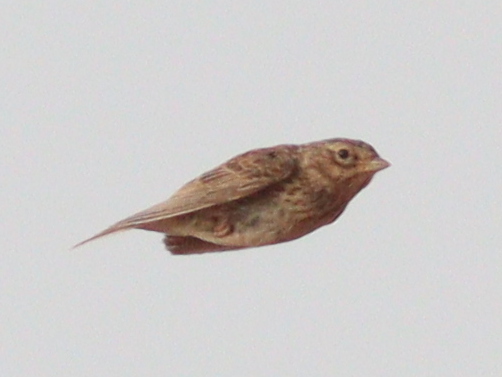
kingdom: Animalia
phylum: Chordata
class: Aves
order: Passeriformes
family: Alaudidae
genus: Calandrella
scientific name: Calandrella rufescens
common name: Lesser short-toed lark
